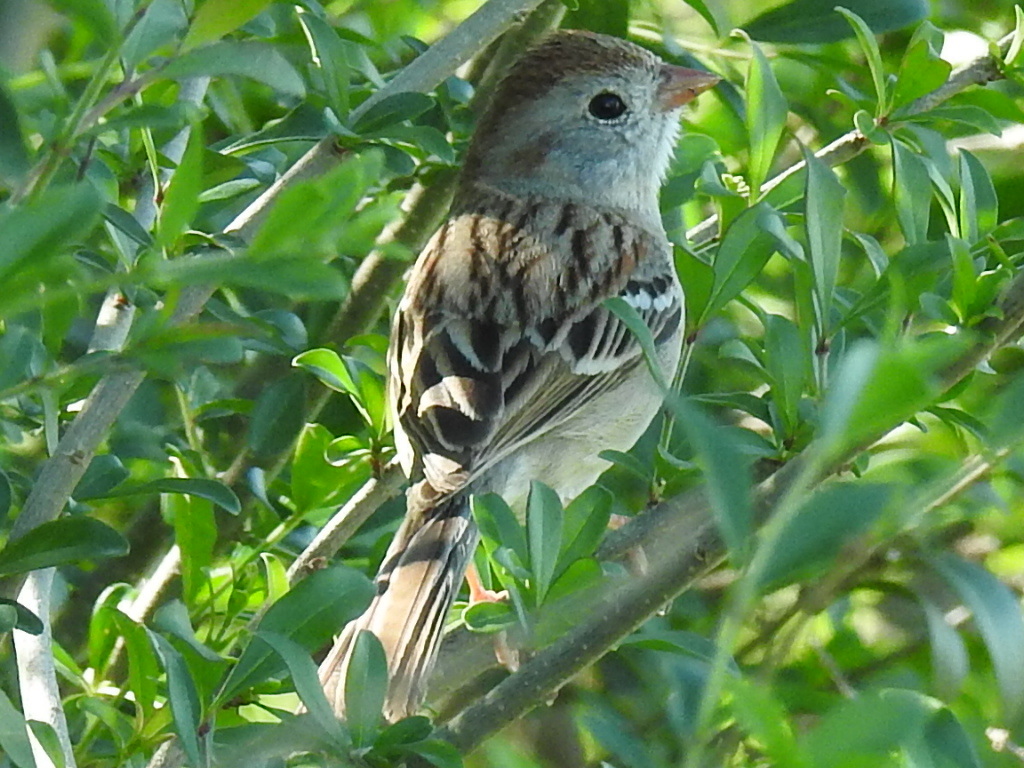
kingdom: Animalia
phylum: Chordata
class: Aves
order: Passeriformes
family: Passerellidae
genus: Spizella
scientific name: Spizella pusilla
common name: Field sparrow
